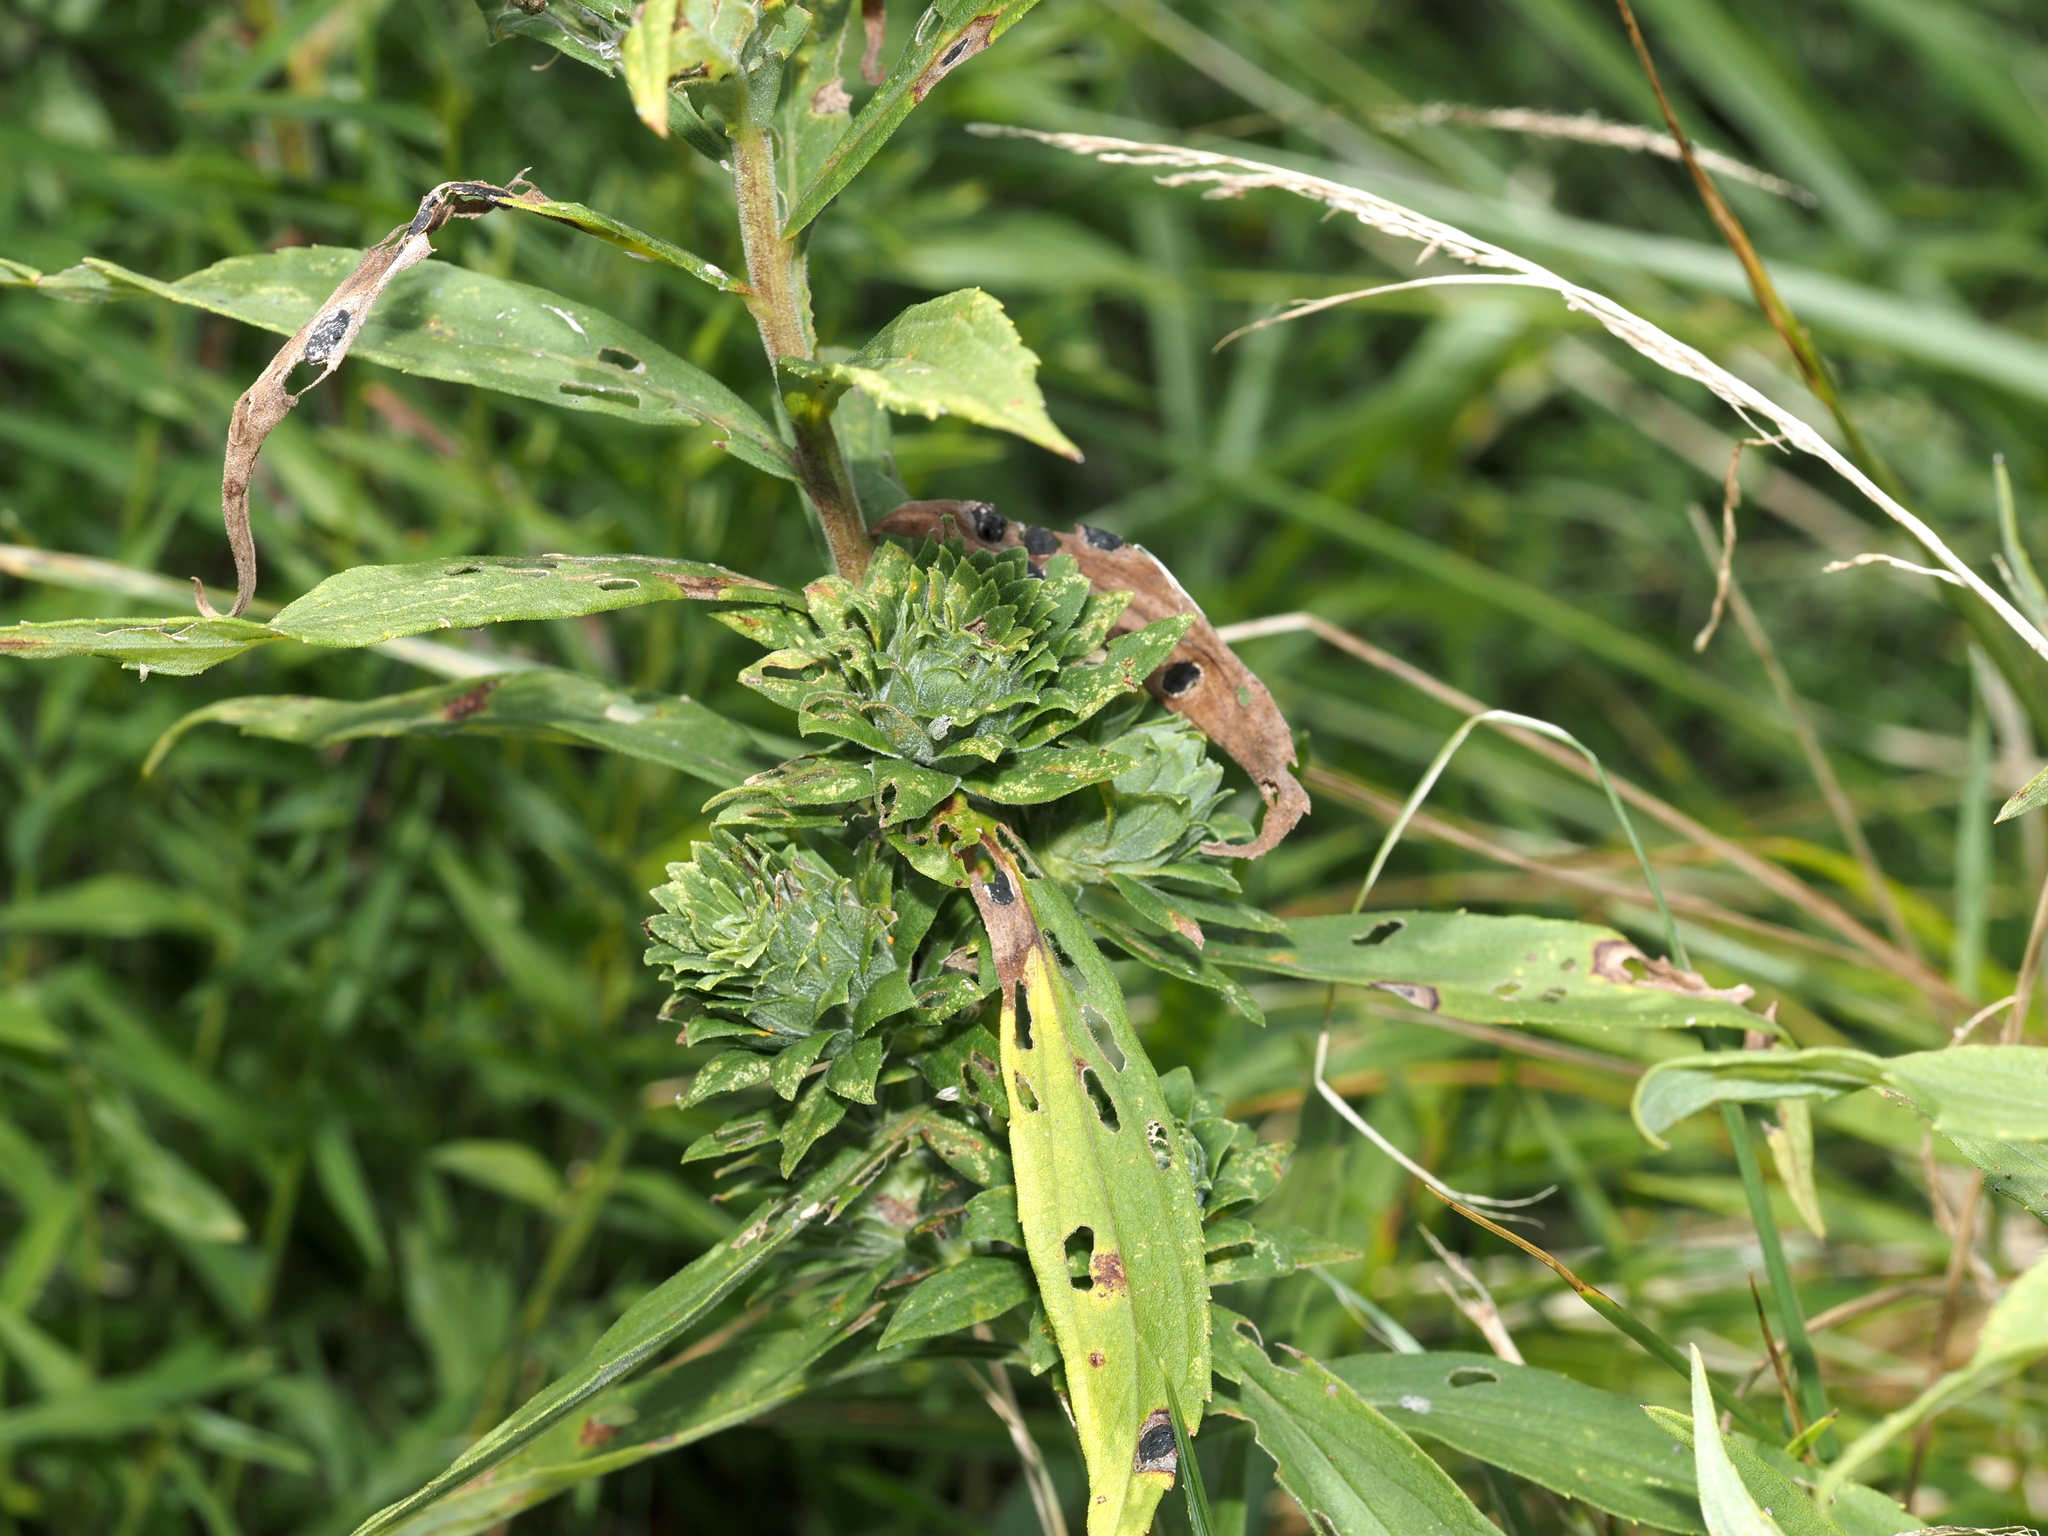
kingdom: Animalia
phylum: Arthropoda
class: Insecta
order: Diptera
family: Tephritidae
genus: Procecidochares
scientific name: Procecidochares atra
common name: Goldenrod brussels sprout gall fly
